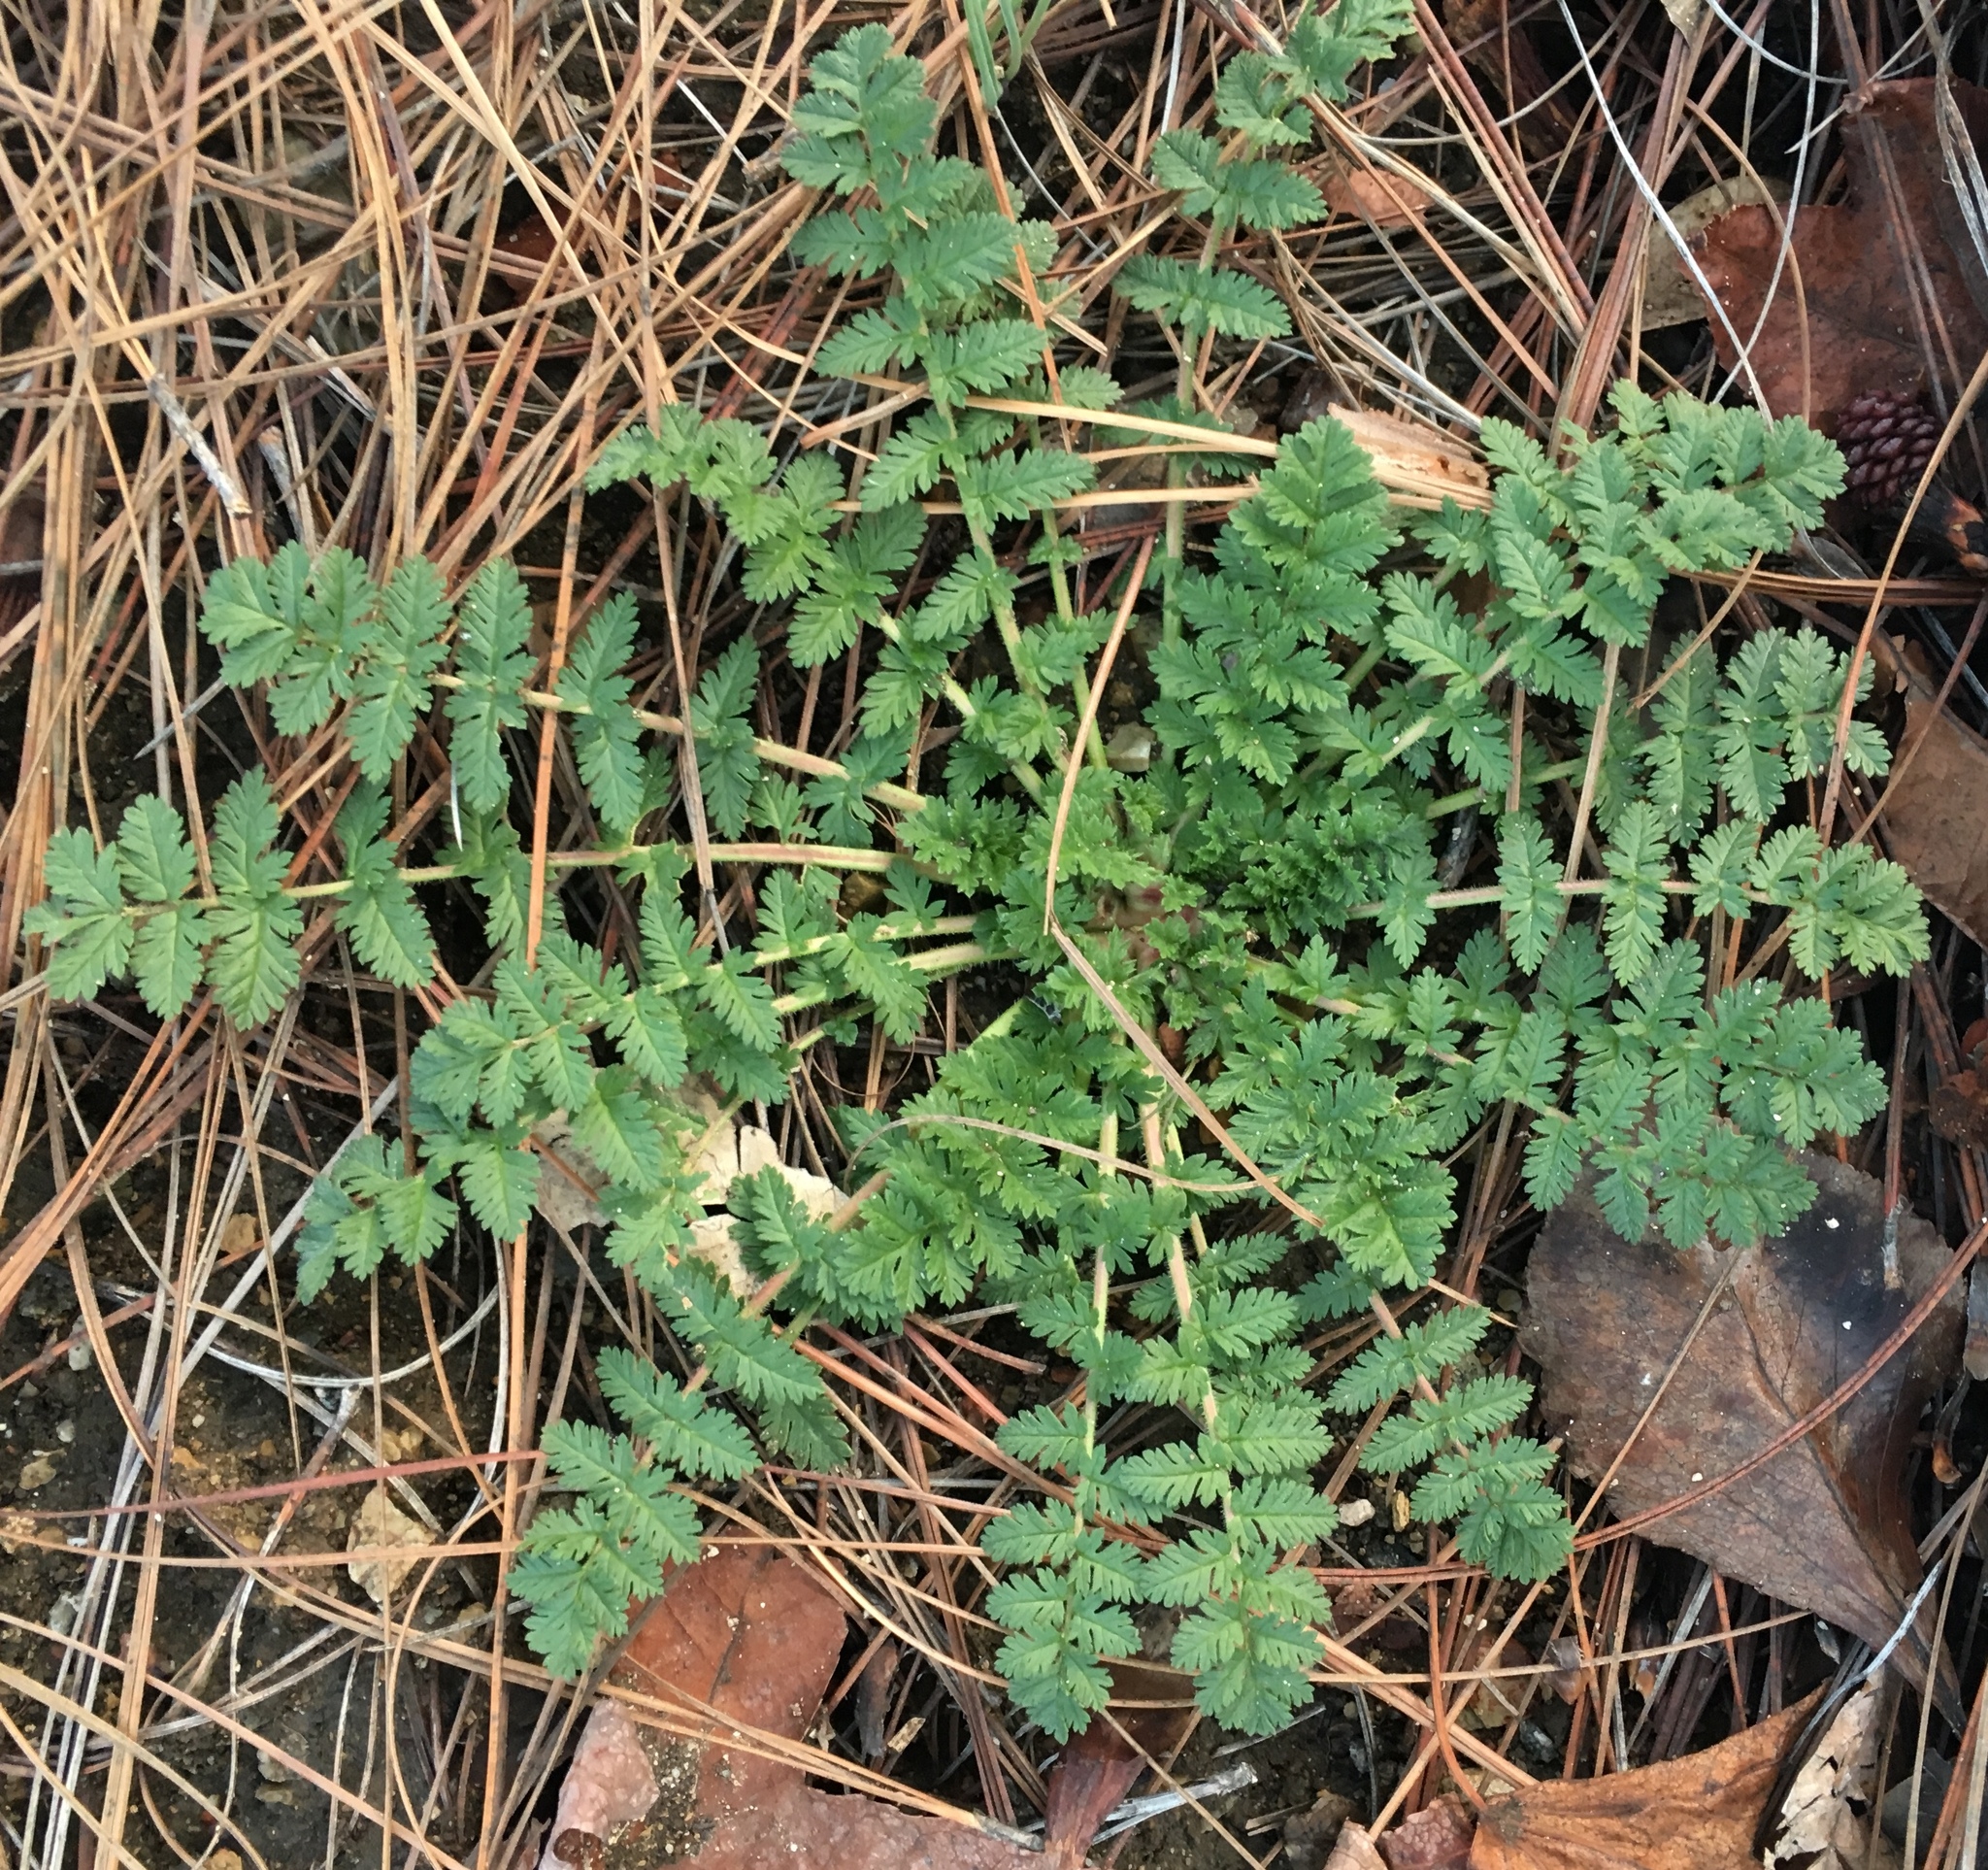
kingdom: Plantae
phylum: Tracheophyta
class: Magnoliopsida
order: Geraniales
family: Geraniaceae
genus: Erodium
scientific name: Erodium cicutarium
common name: Common stork's-bill
